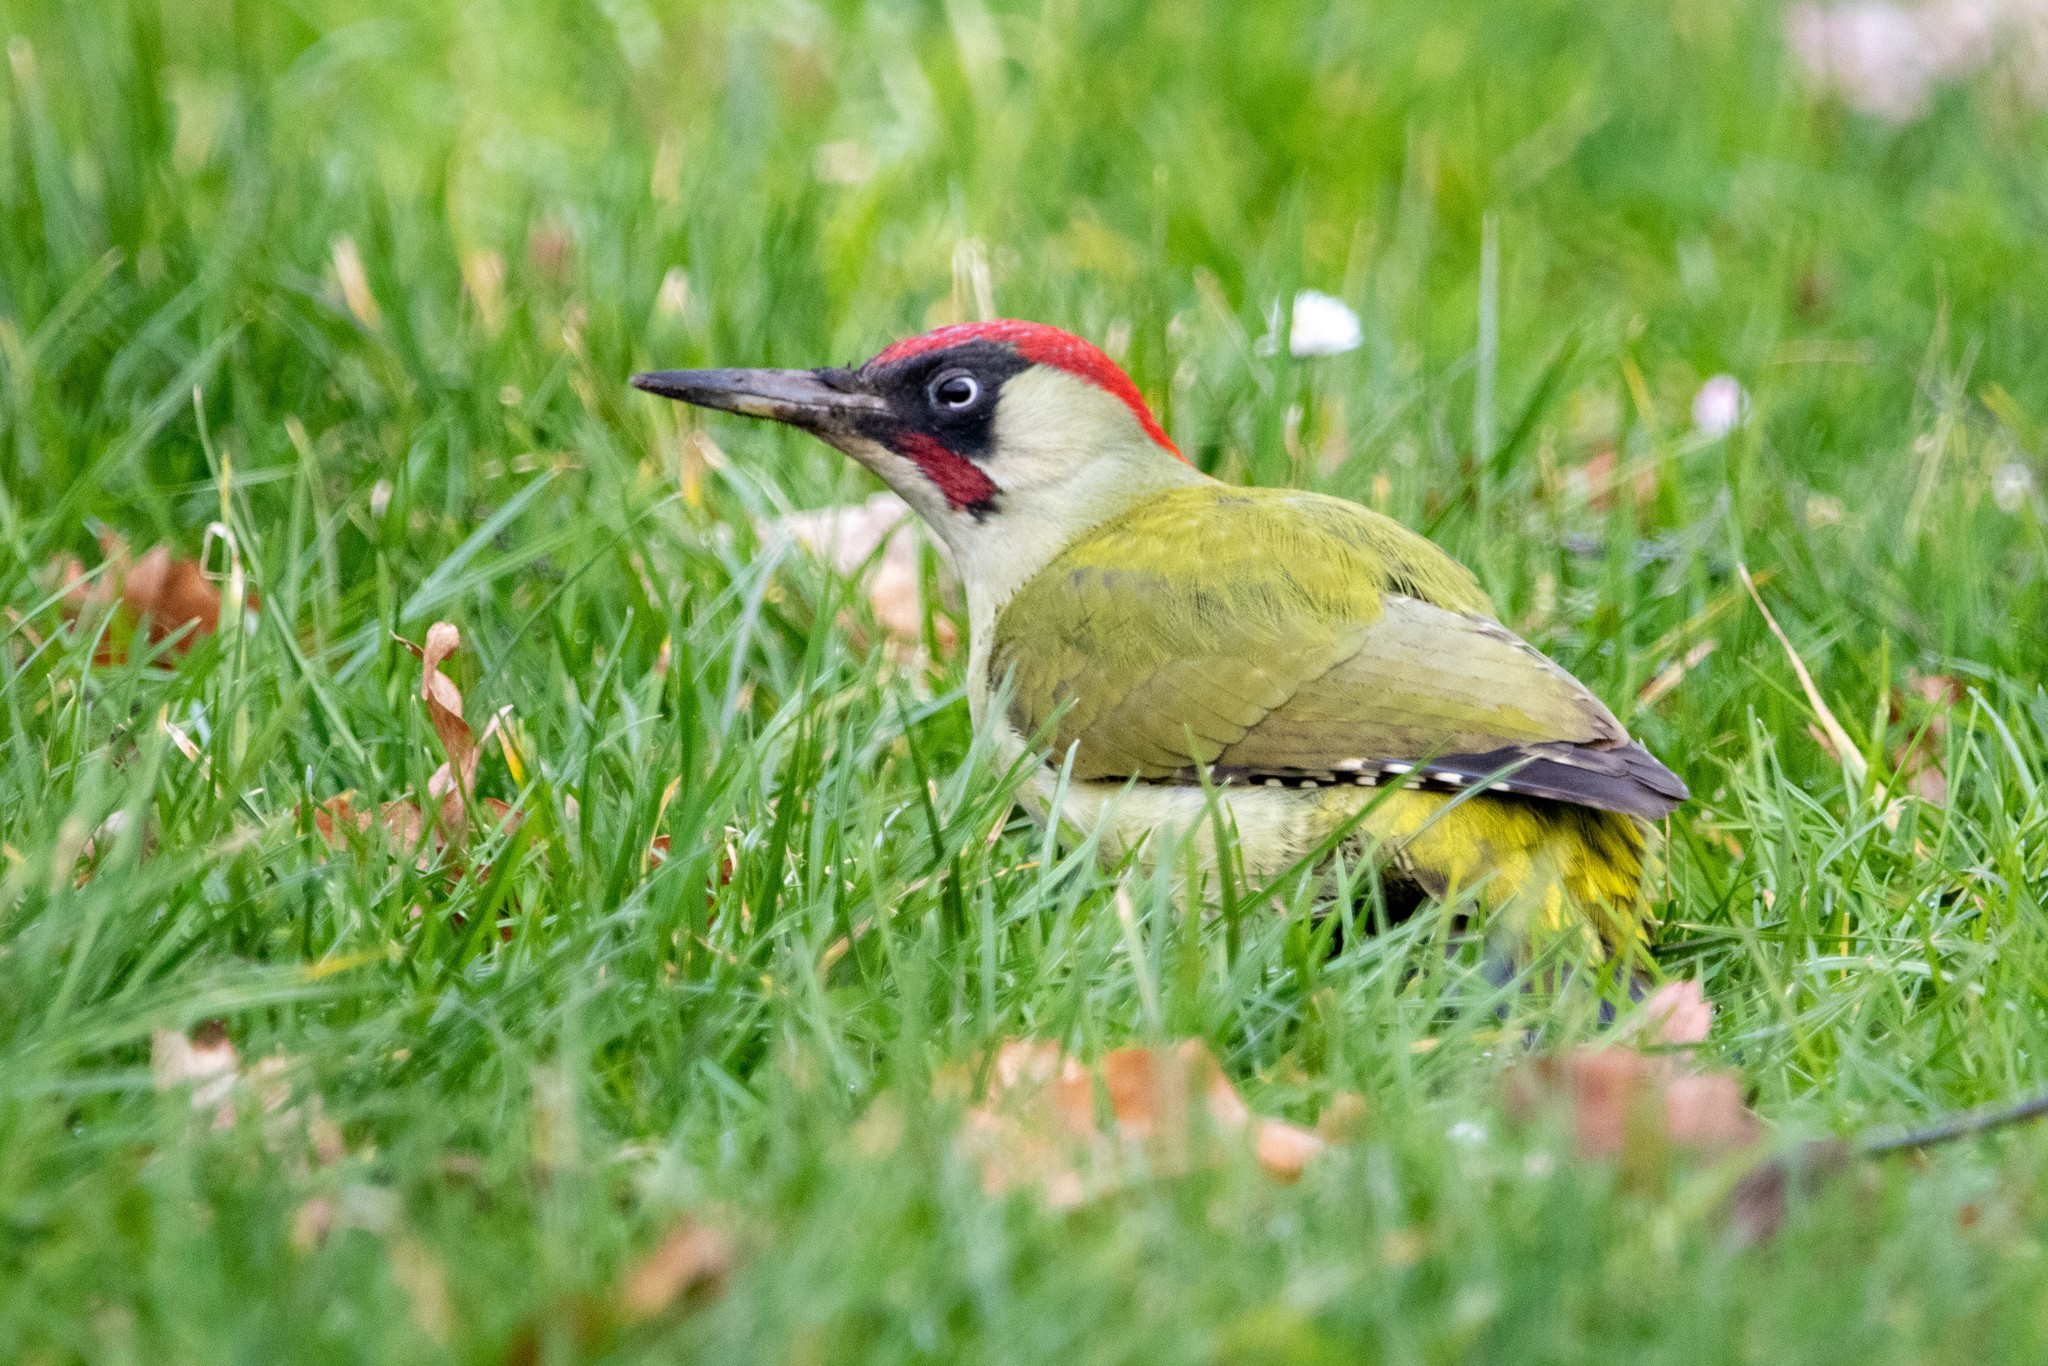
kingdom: Animalia
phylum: Chordata
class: Aves
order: Piciformes
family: Picidae
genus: Picus
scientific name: Picus viridis
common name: European green woodpecker
